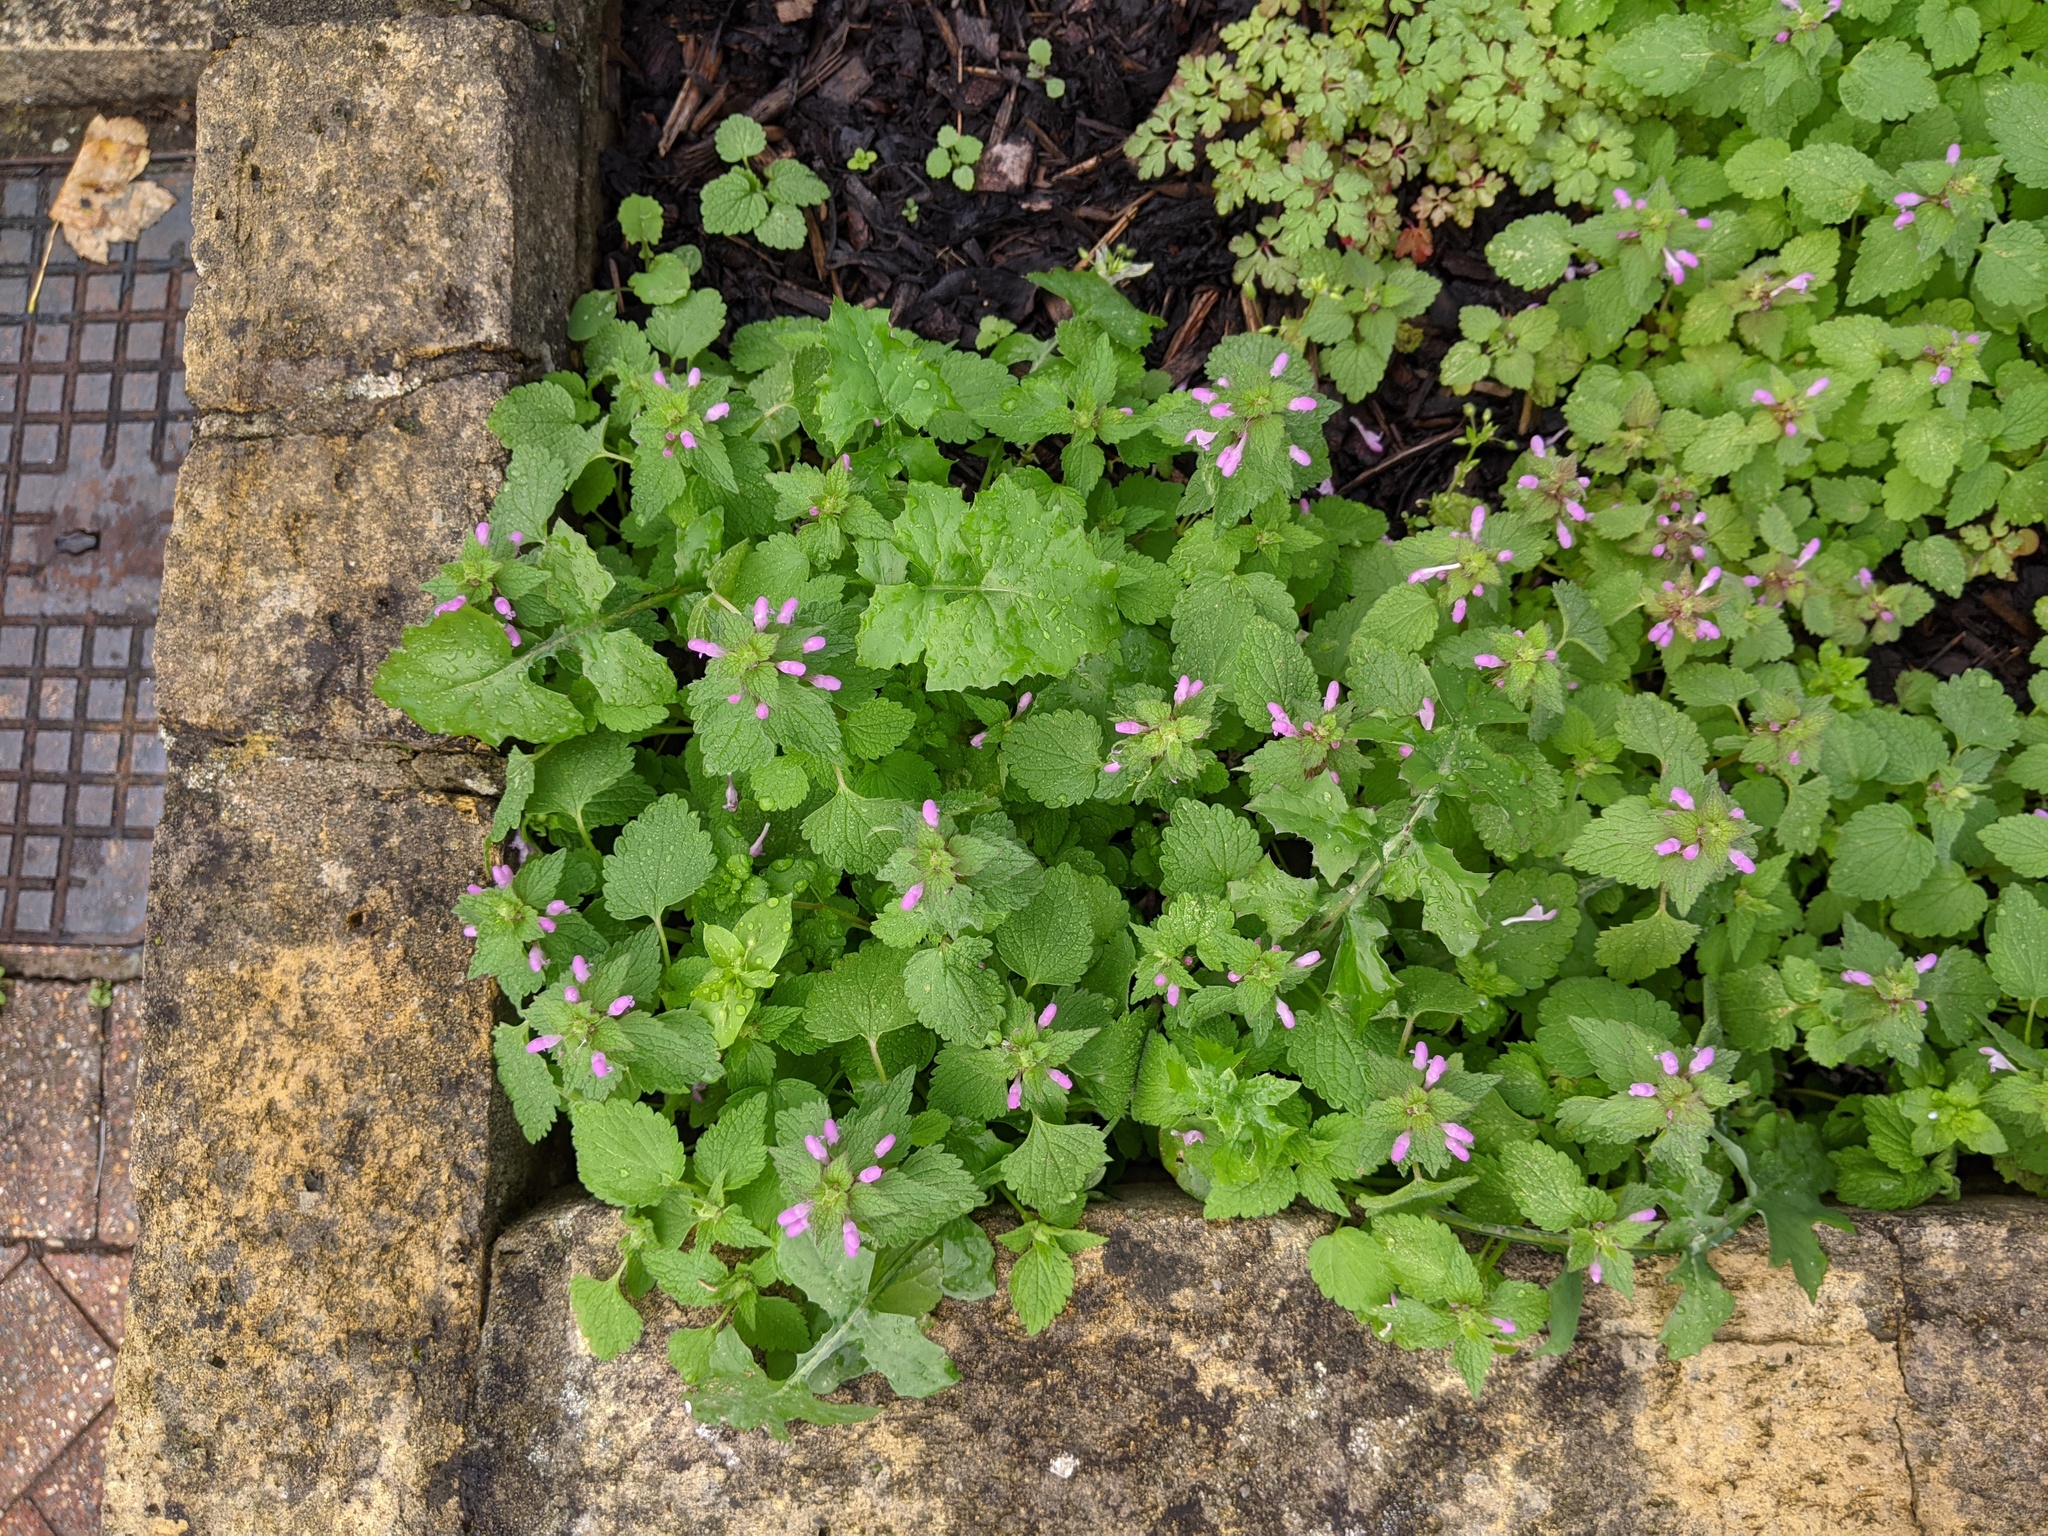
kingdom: Plantae
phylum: Tracheophyta
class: Magnoliopsida
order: Lamiales
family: Lamiaceae
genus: Lamium
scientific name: Lamium purpureum
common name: Red dead-nettle
